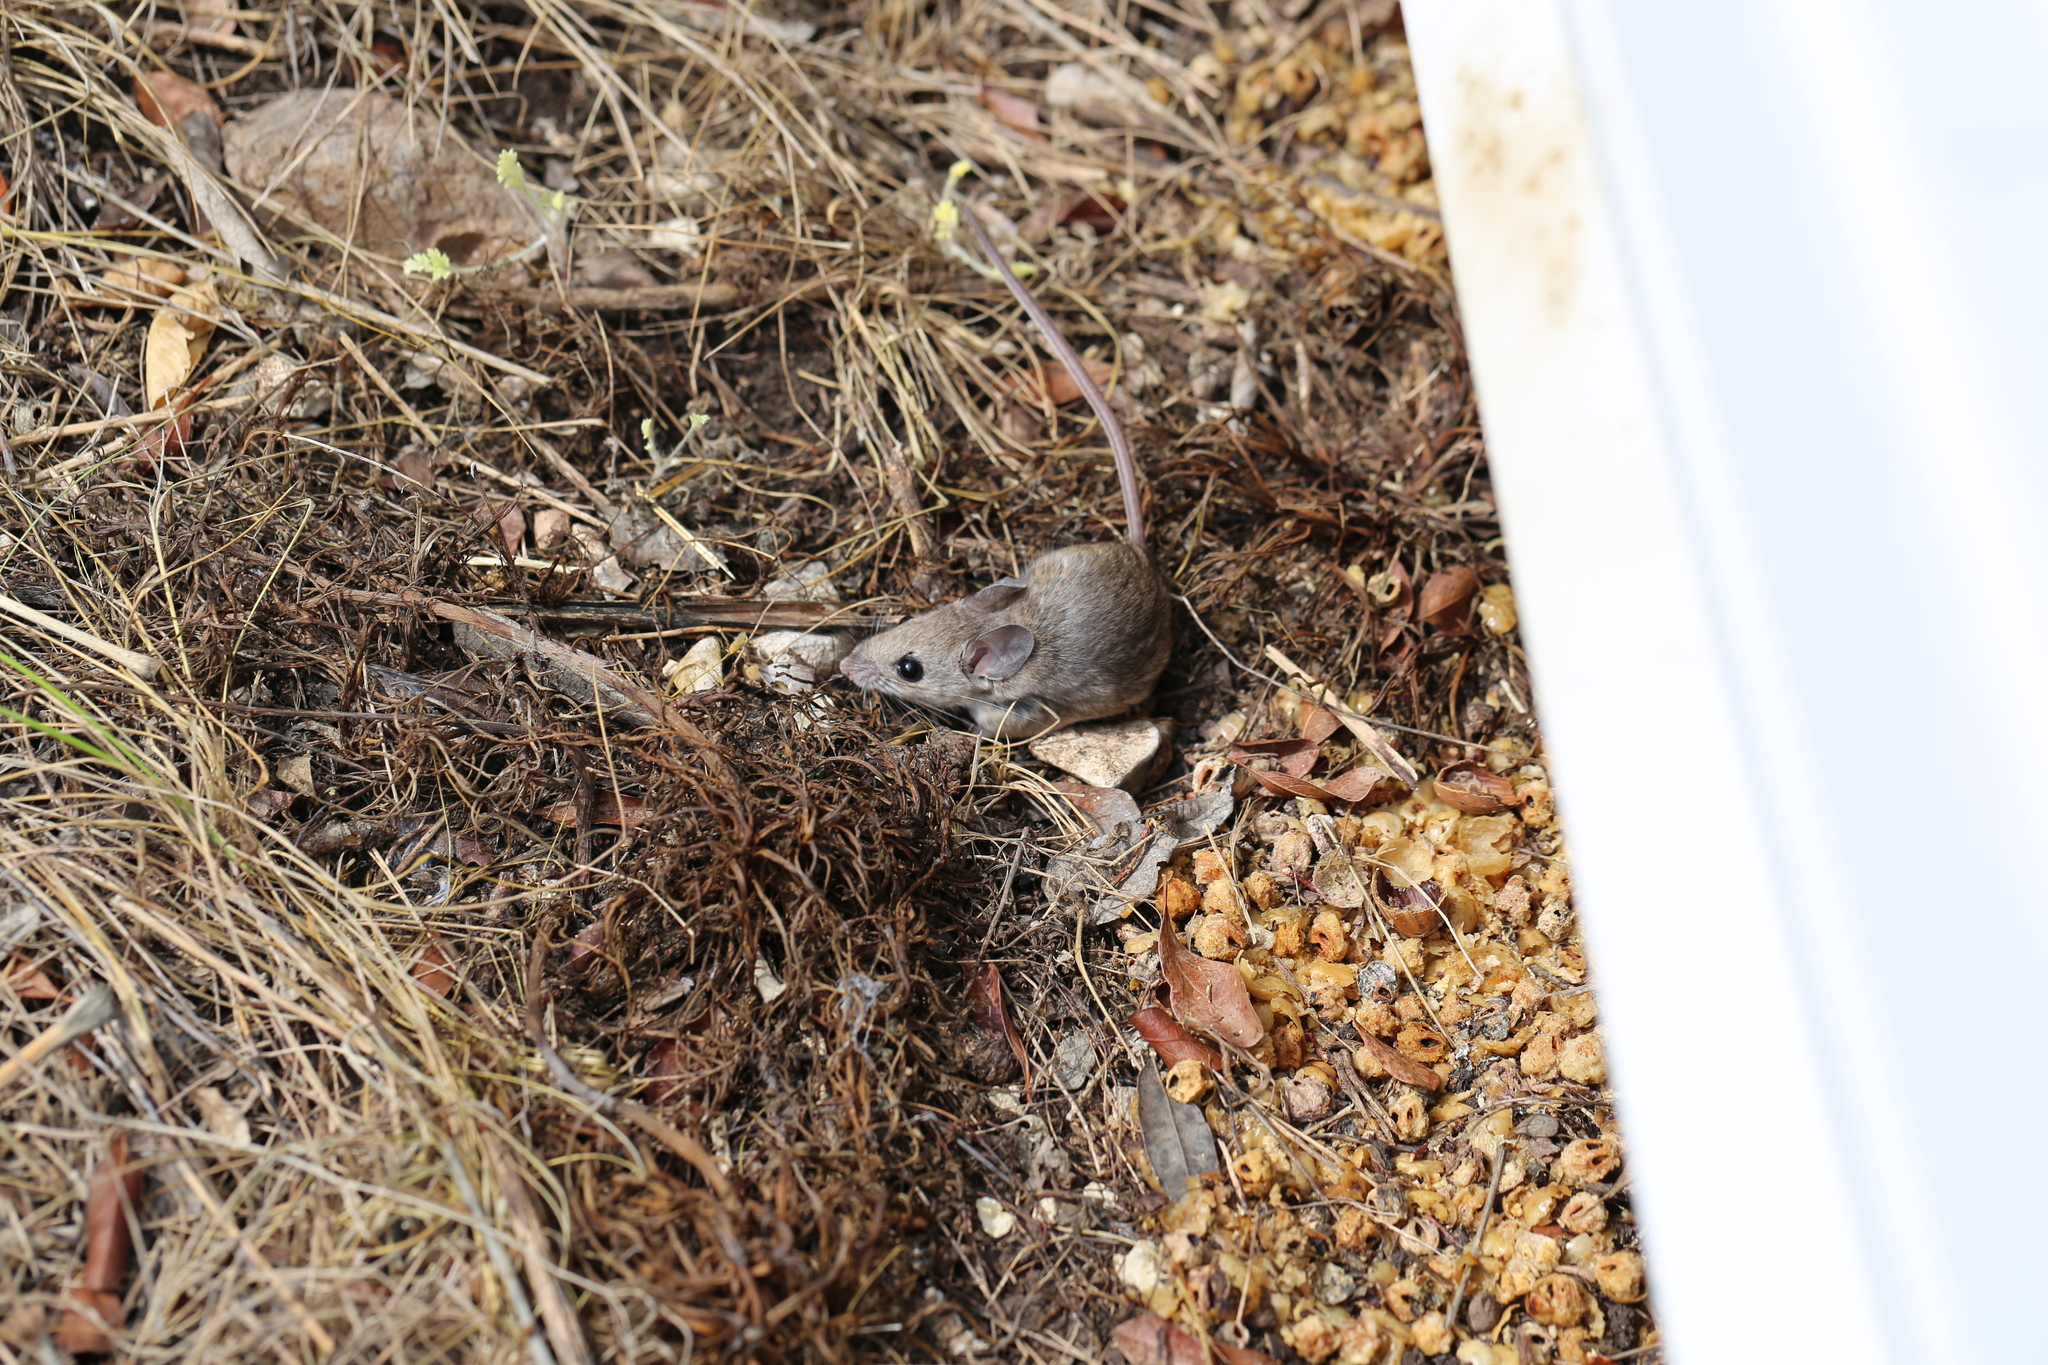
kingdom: Animalia
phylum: Chordata
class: Mammalia
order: Rodentia
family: Cricetidae
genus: Peromyscus
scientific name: Peromyscus leucopus
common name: White-footed deermouse
